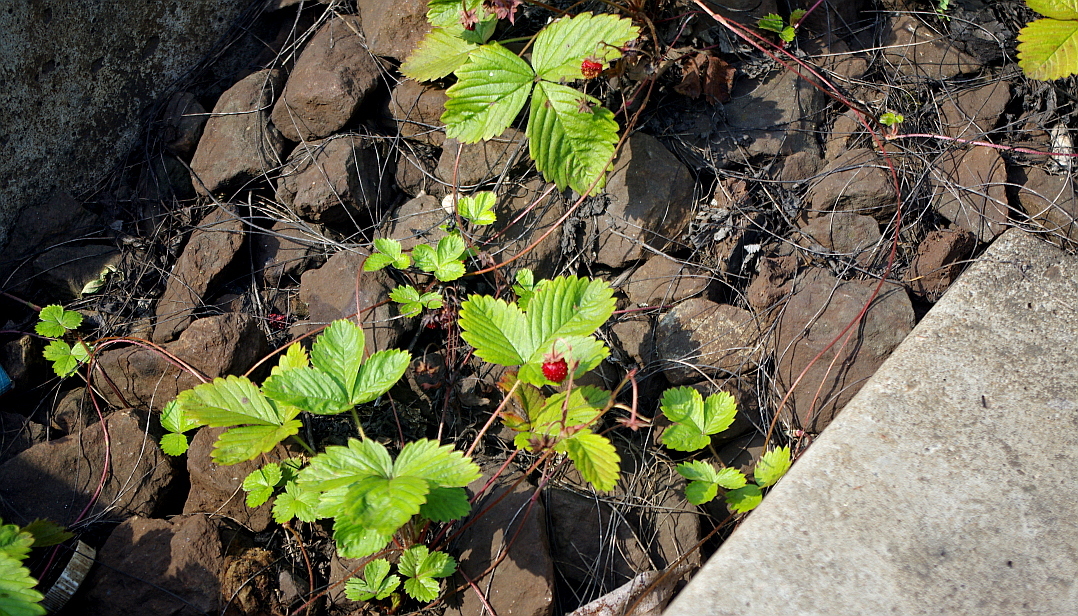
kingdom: Plantae
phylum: Tracheophyta
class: Magnoliopsida
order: Rosales
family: Rosaceae
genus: Fragaria
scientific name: Fragaria vesca
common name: Wild strawberry
